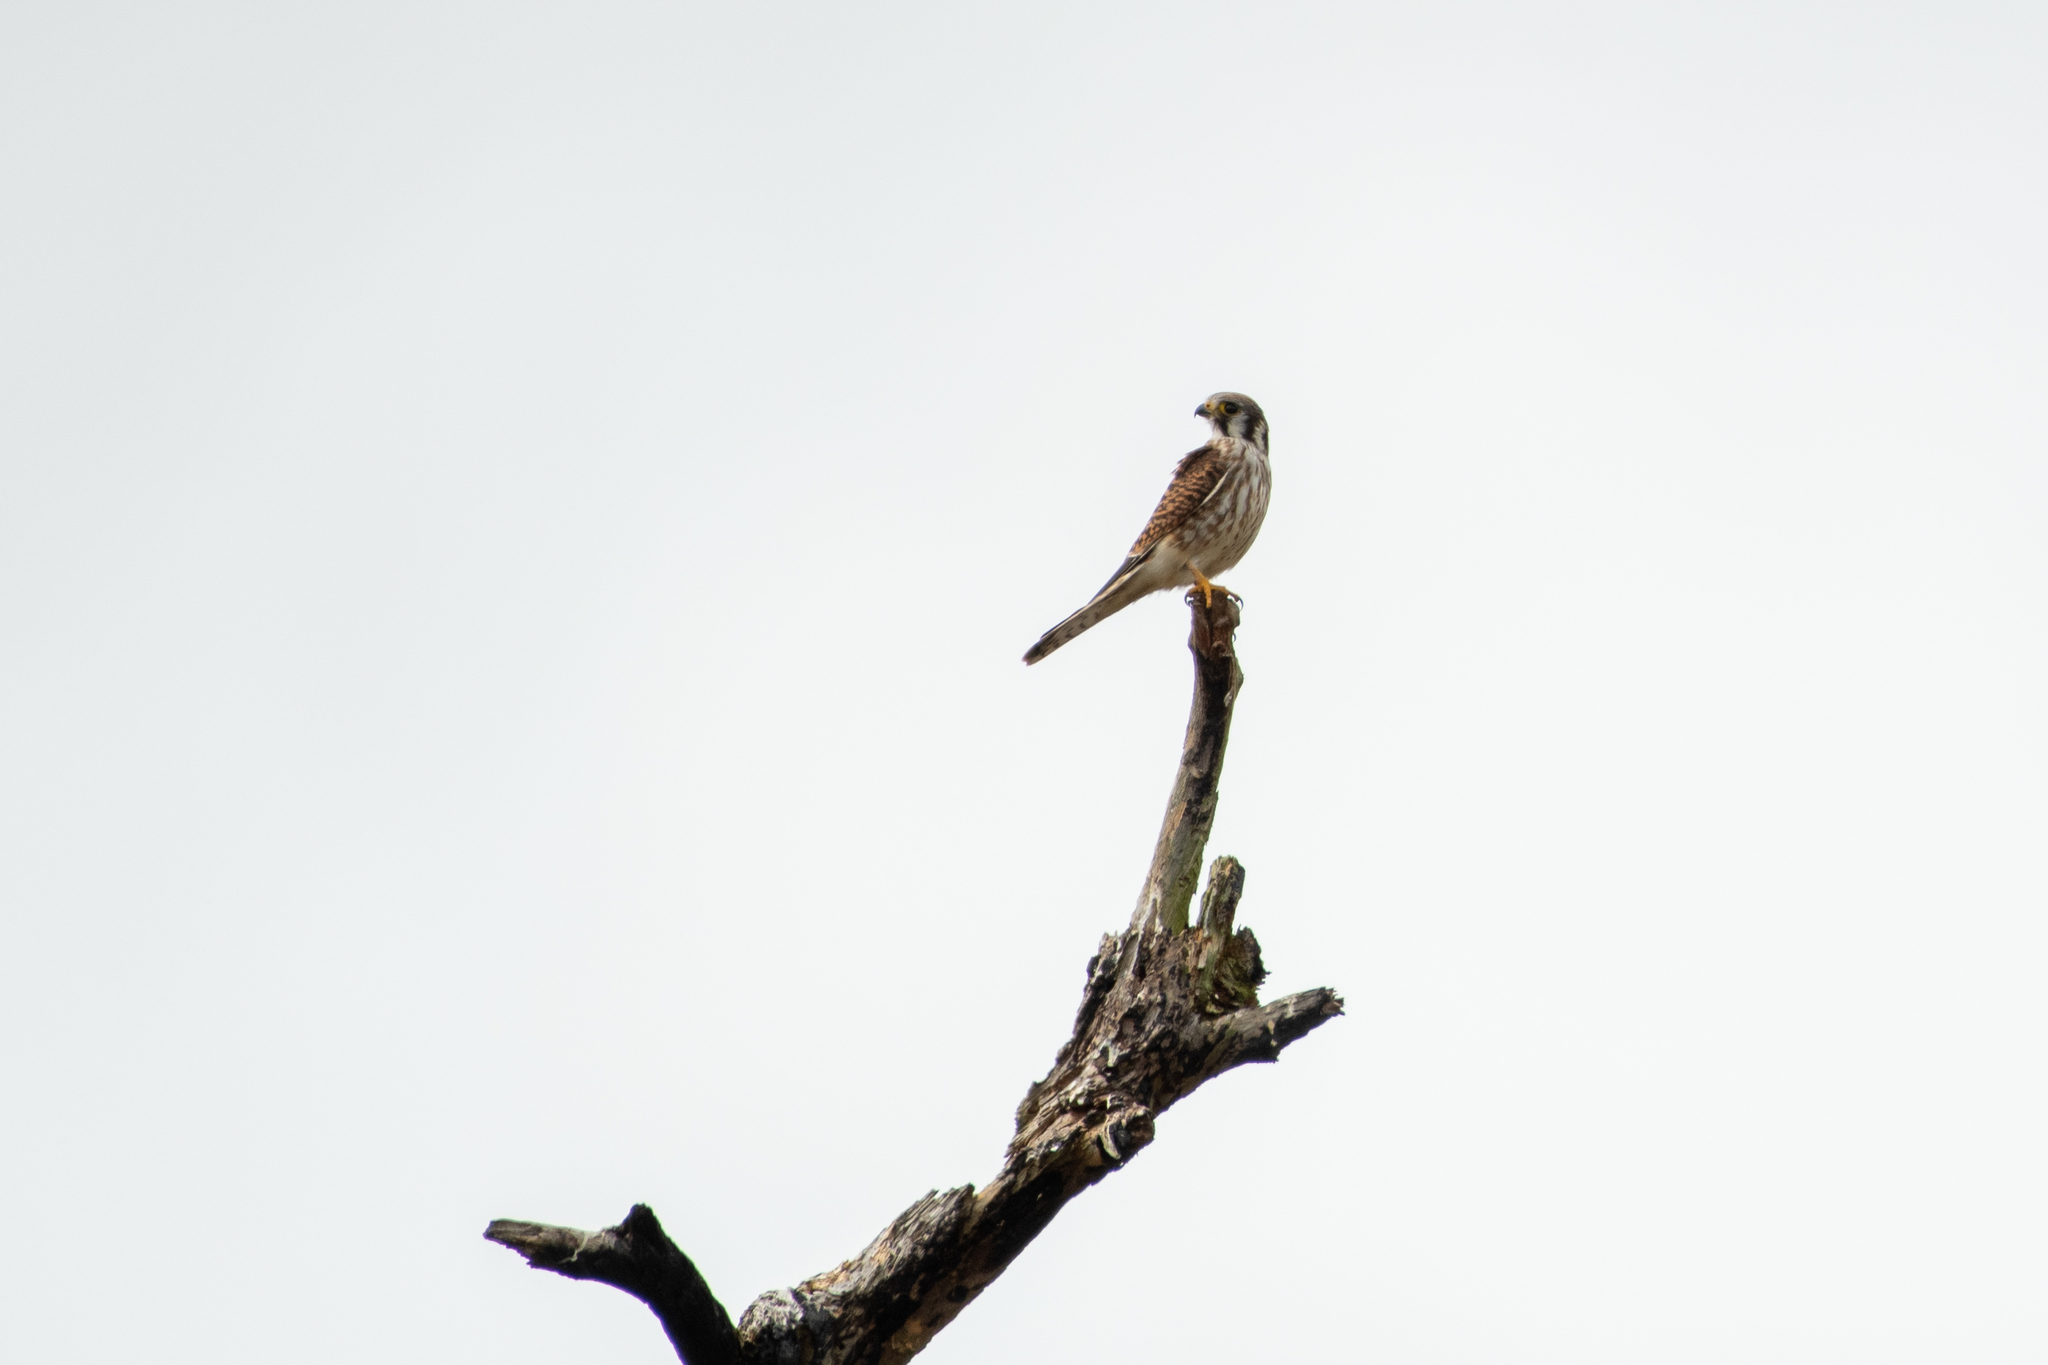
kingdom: Animalia
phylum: Chordata
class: Aves
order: Falconiformes
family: Falconidae
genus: Falco
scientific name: Falco sparverius
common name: American kestrel
